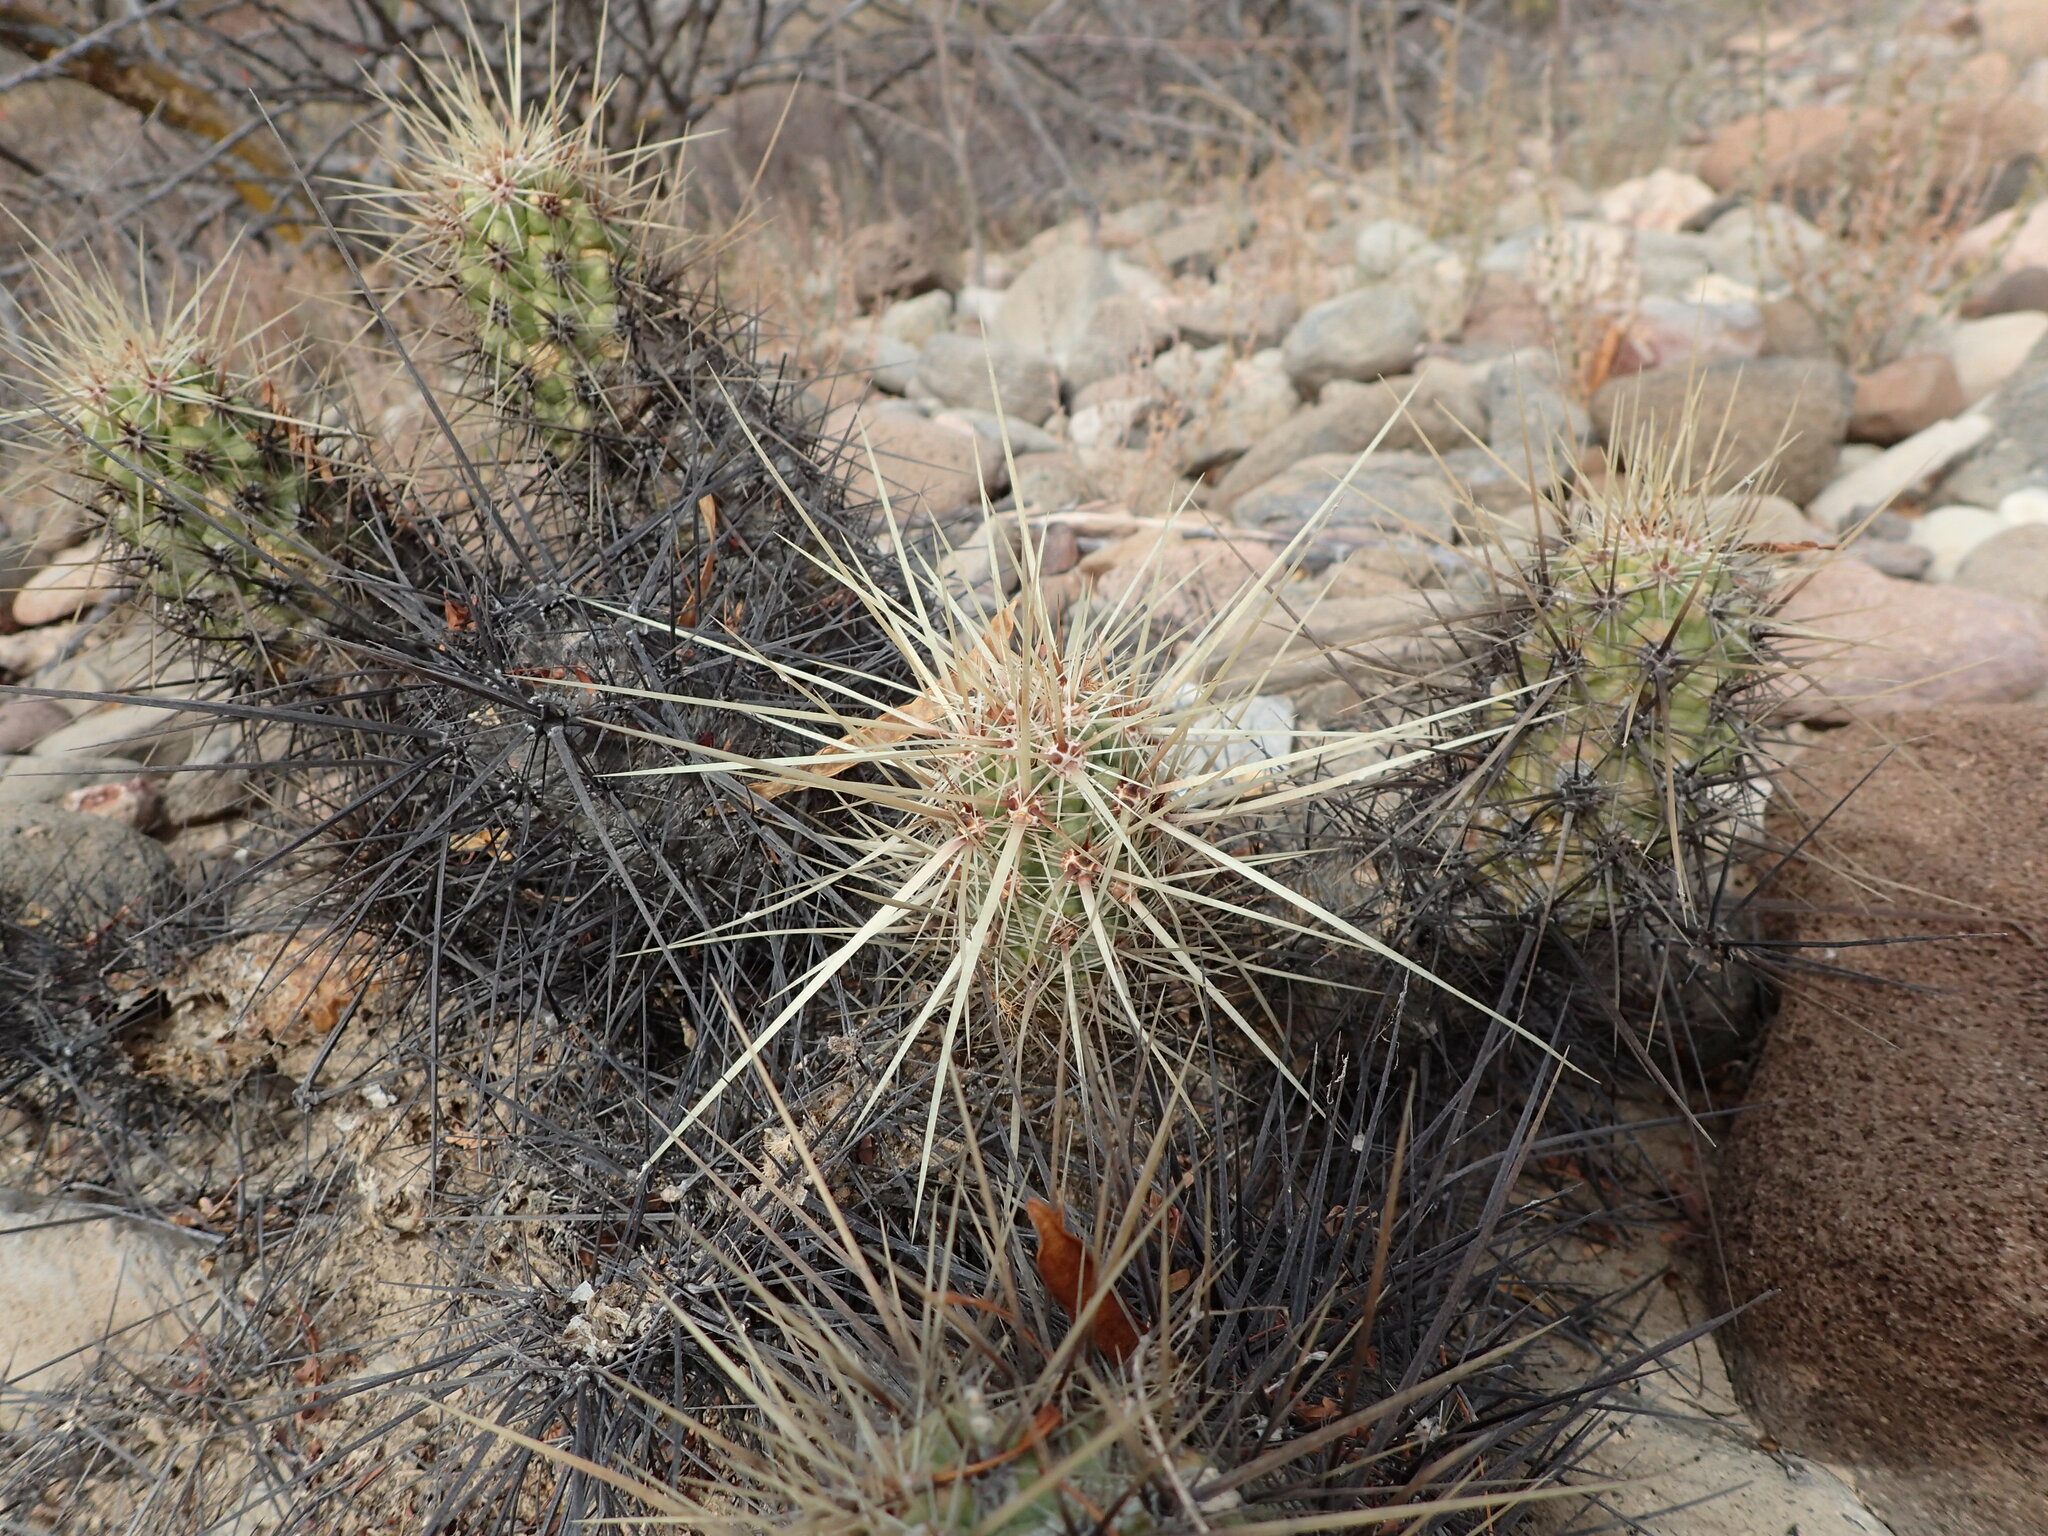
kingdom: Plantae
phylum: Tracheophyta
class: Magnoliopsida
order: Caryophyllales
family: Cactaceae
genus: Echinocereus
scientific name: Echinocereus brandegeei
